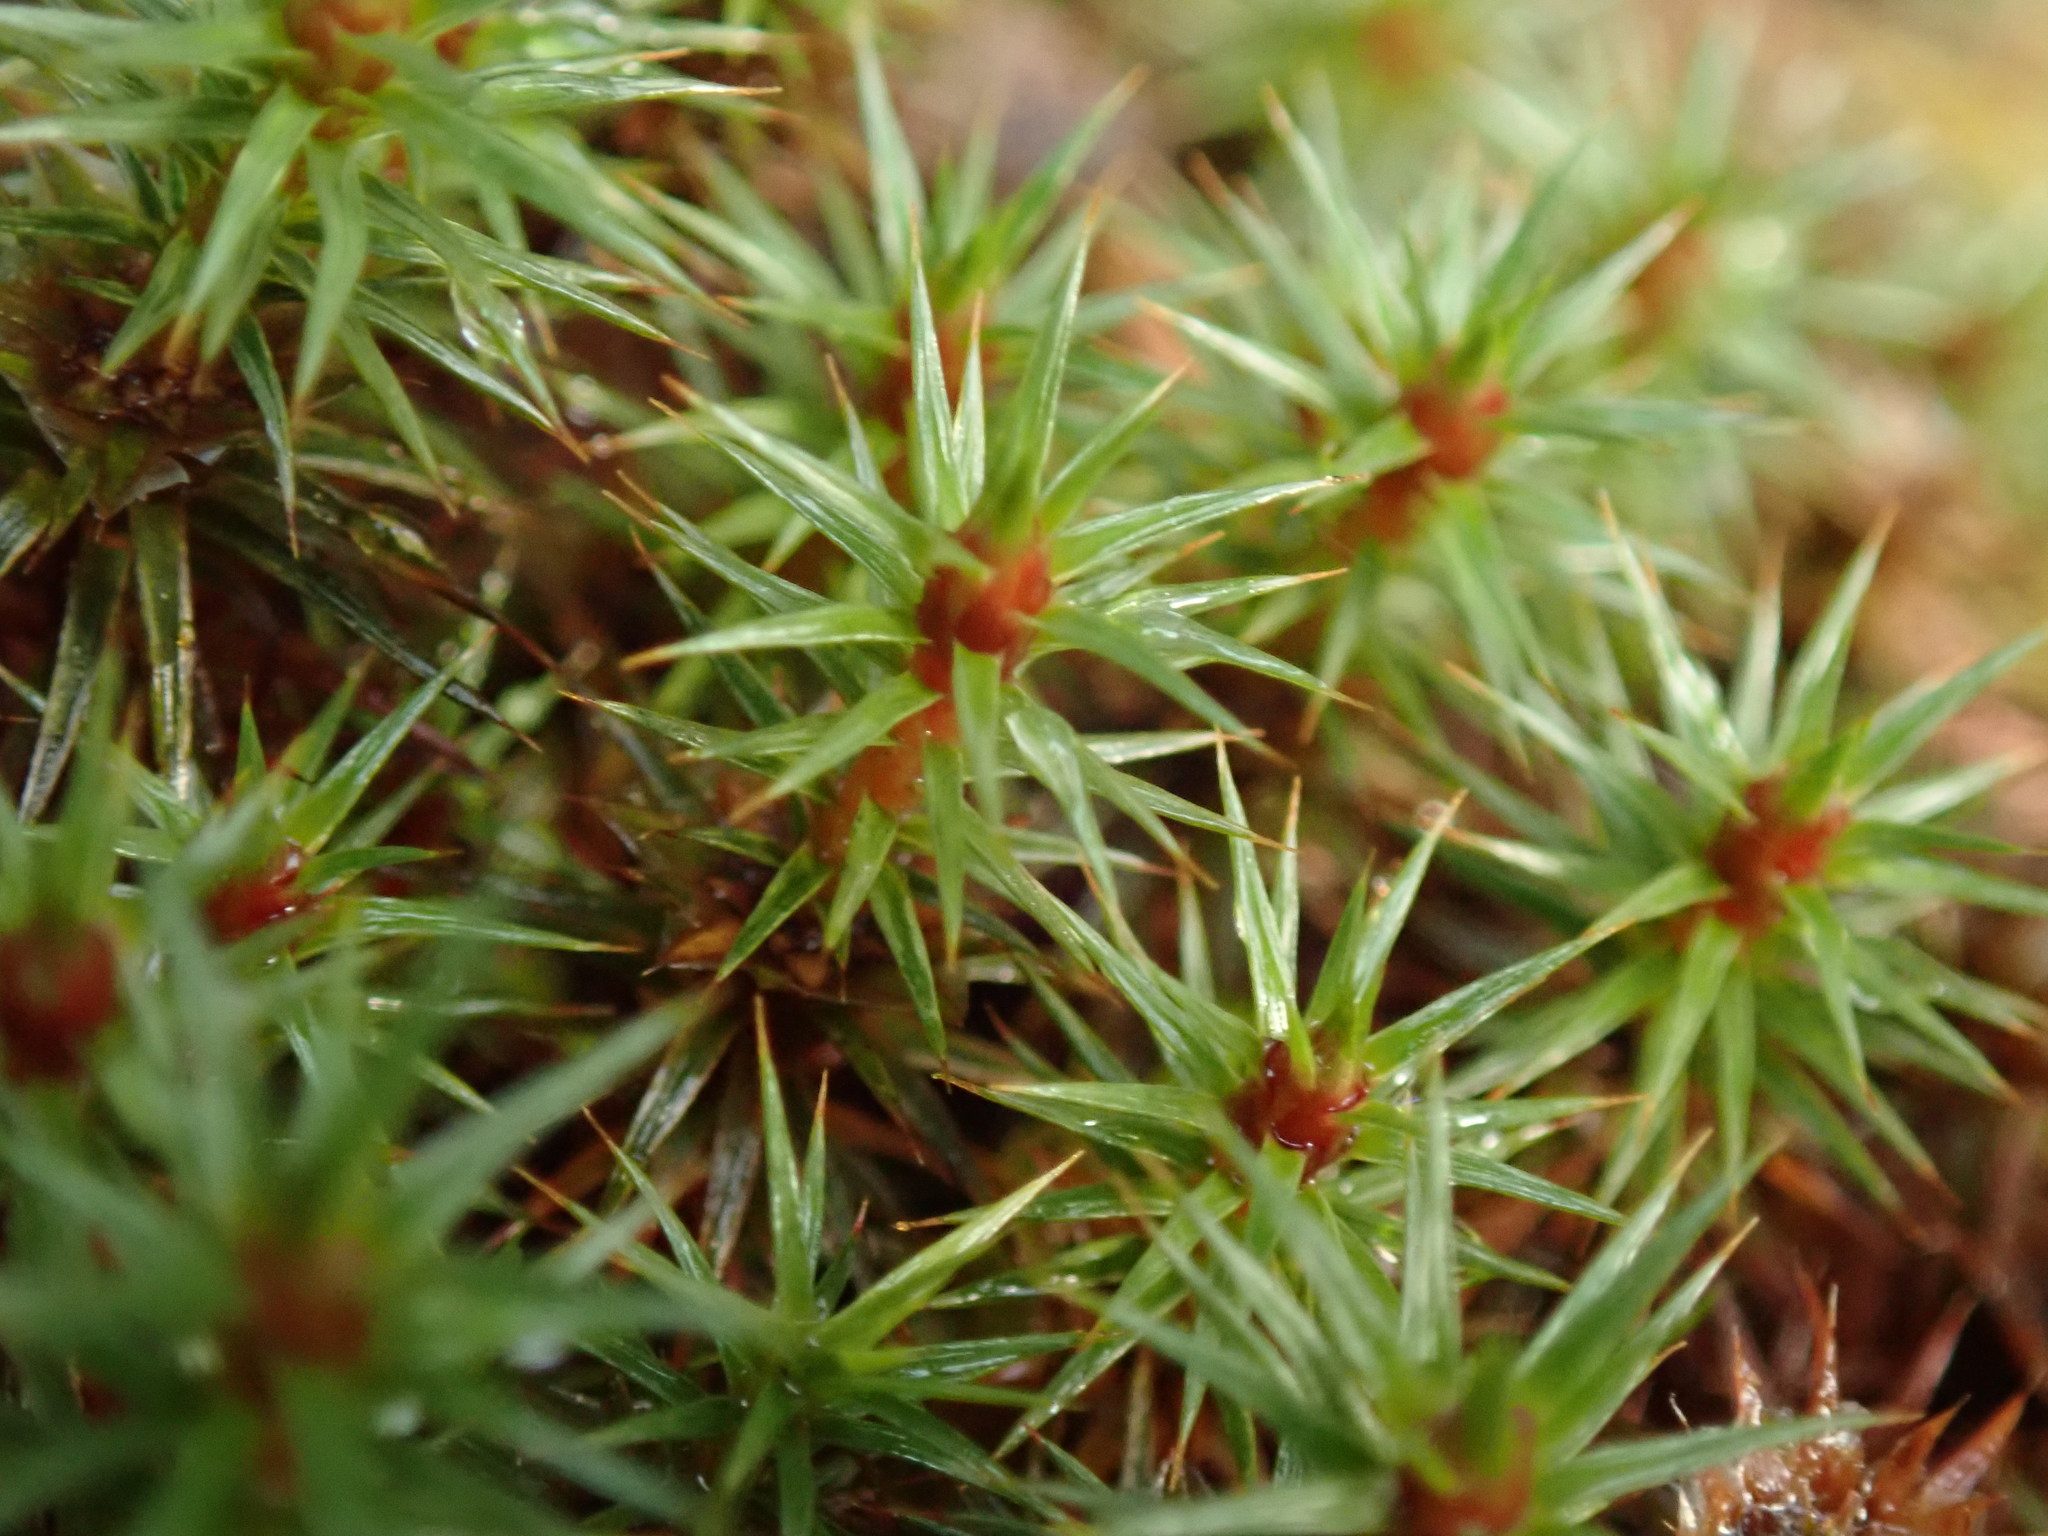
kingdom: Plantae
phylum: Bryophyta
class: Polytrichopsida
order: Polytrichales
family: Polytrichaceae
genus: Polytrichum
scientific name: Polytrichum juniperinum
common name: Juniper haircap moss
